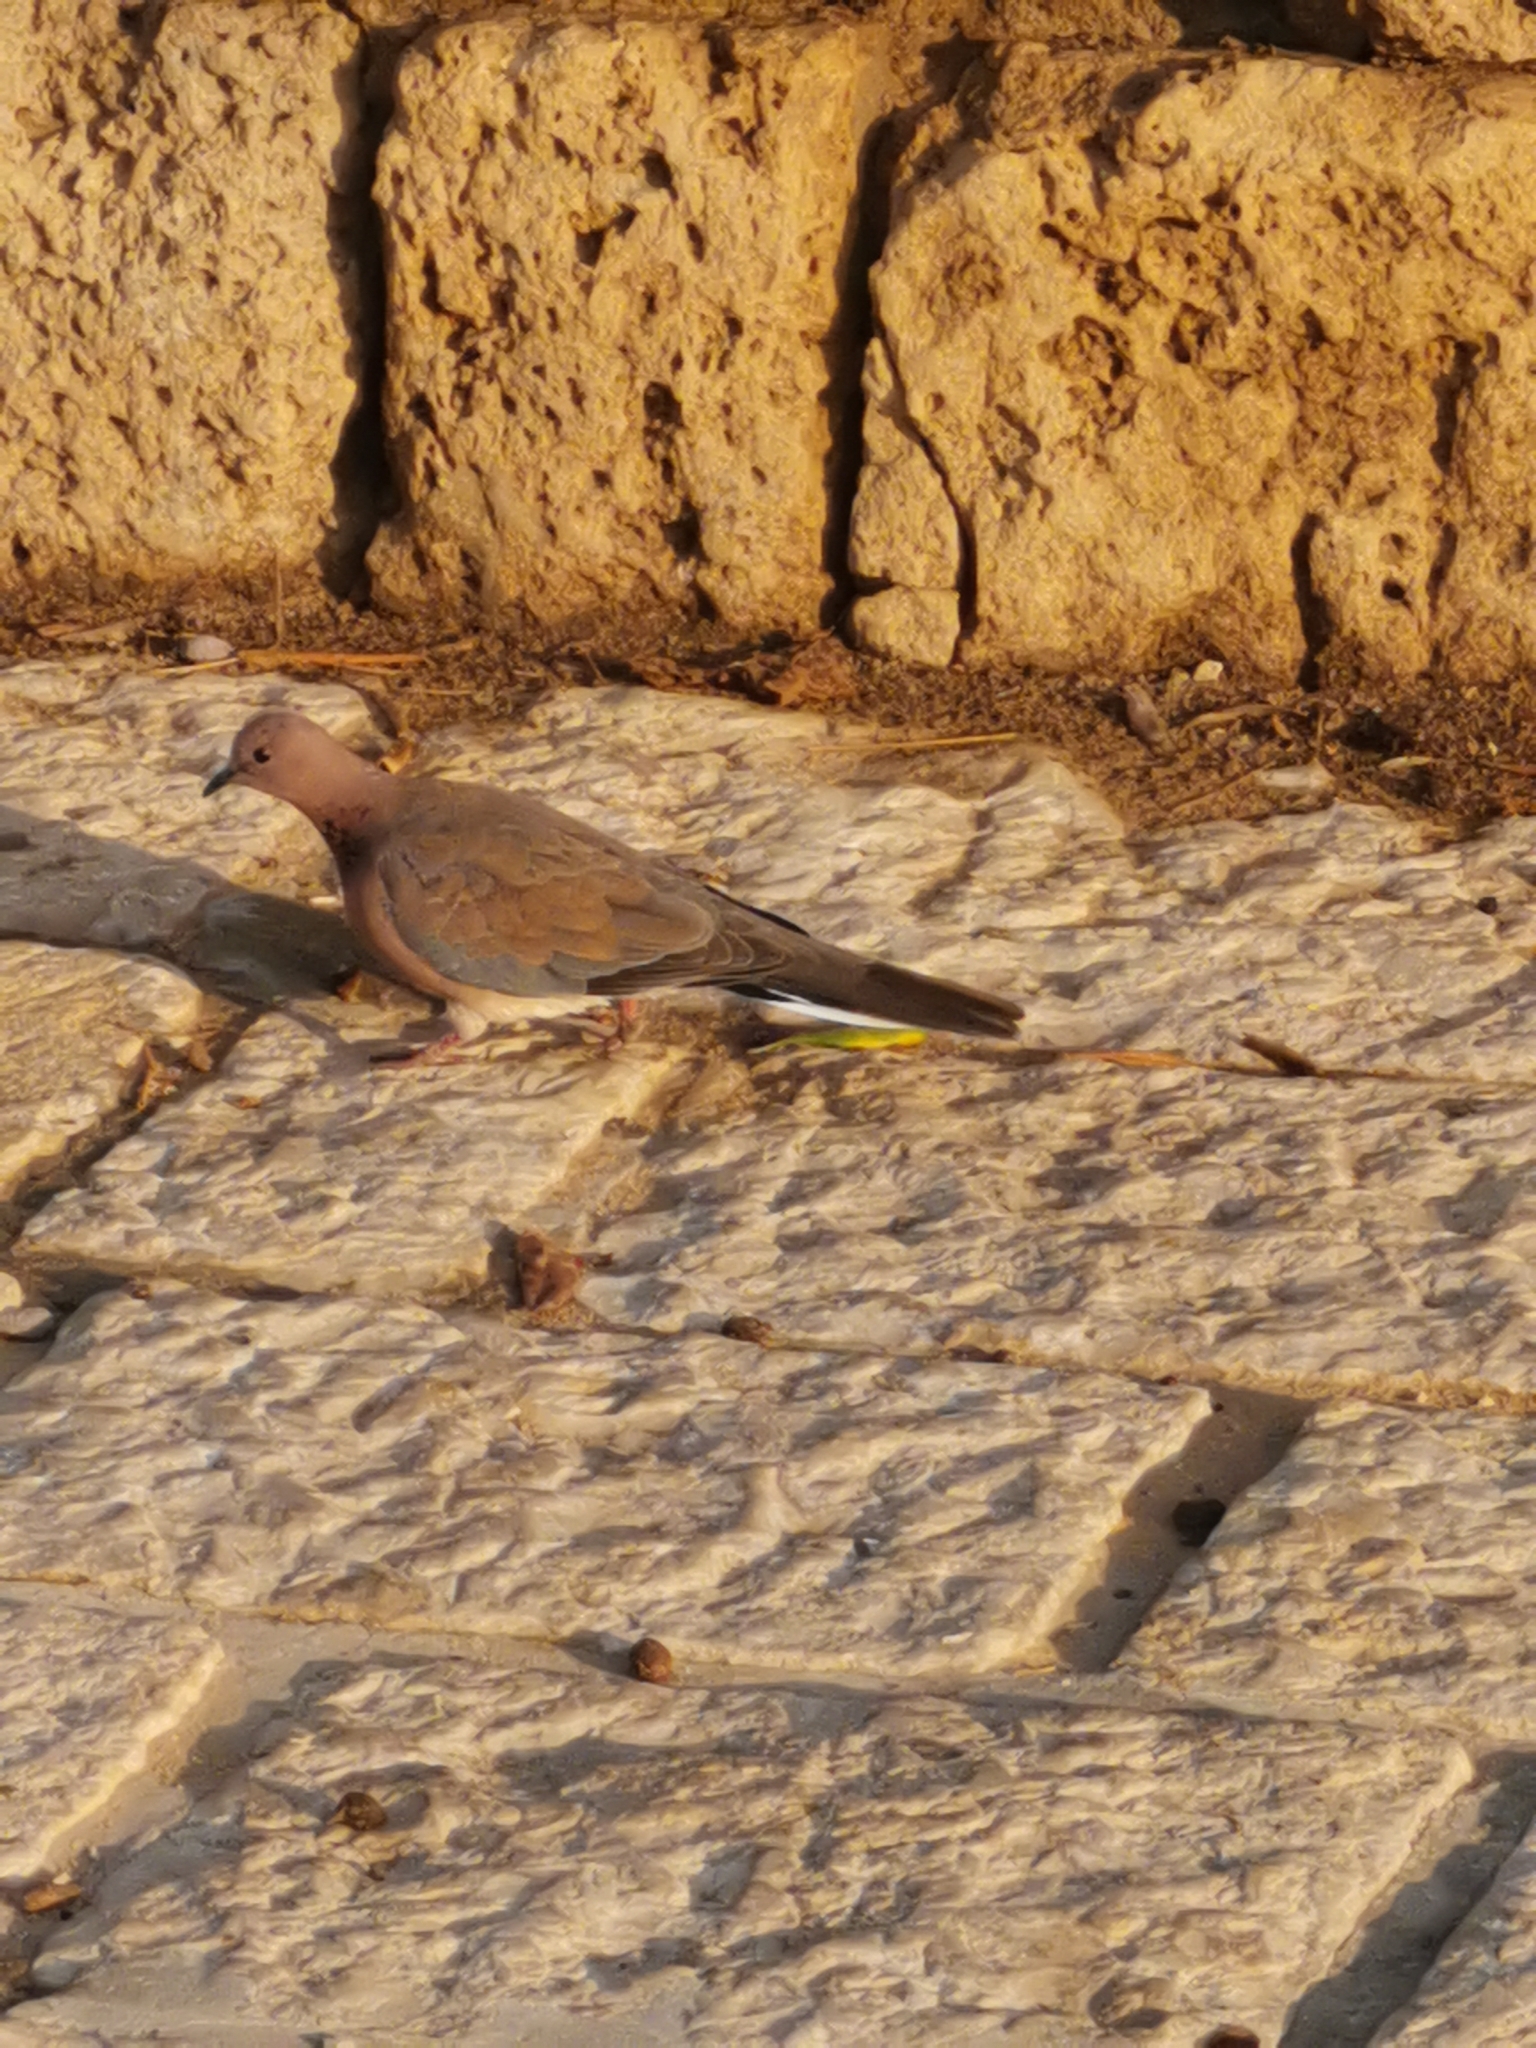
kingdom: Animalia
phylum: Chordata
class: Aves
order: Columbiformes
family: Columbidae
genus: Spilopelia
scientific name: Spilopelia senegalensis
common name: Laughing dove
